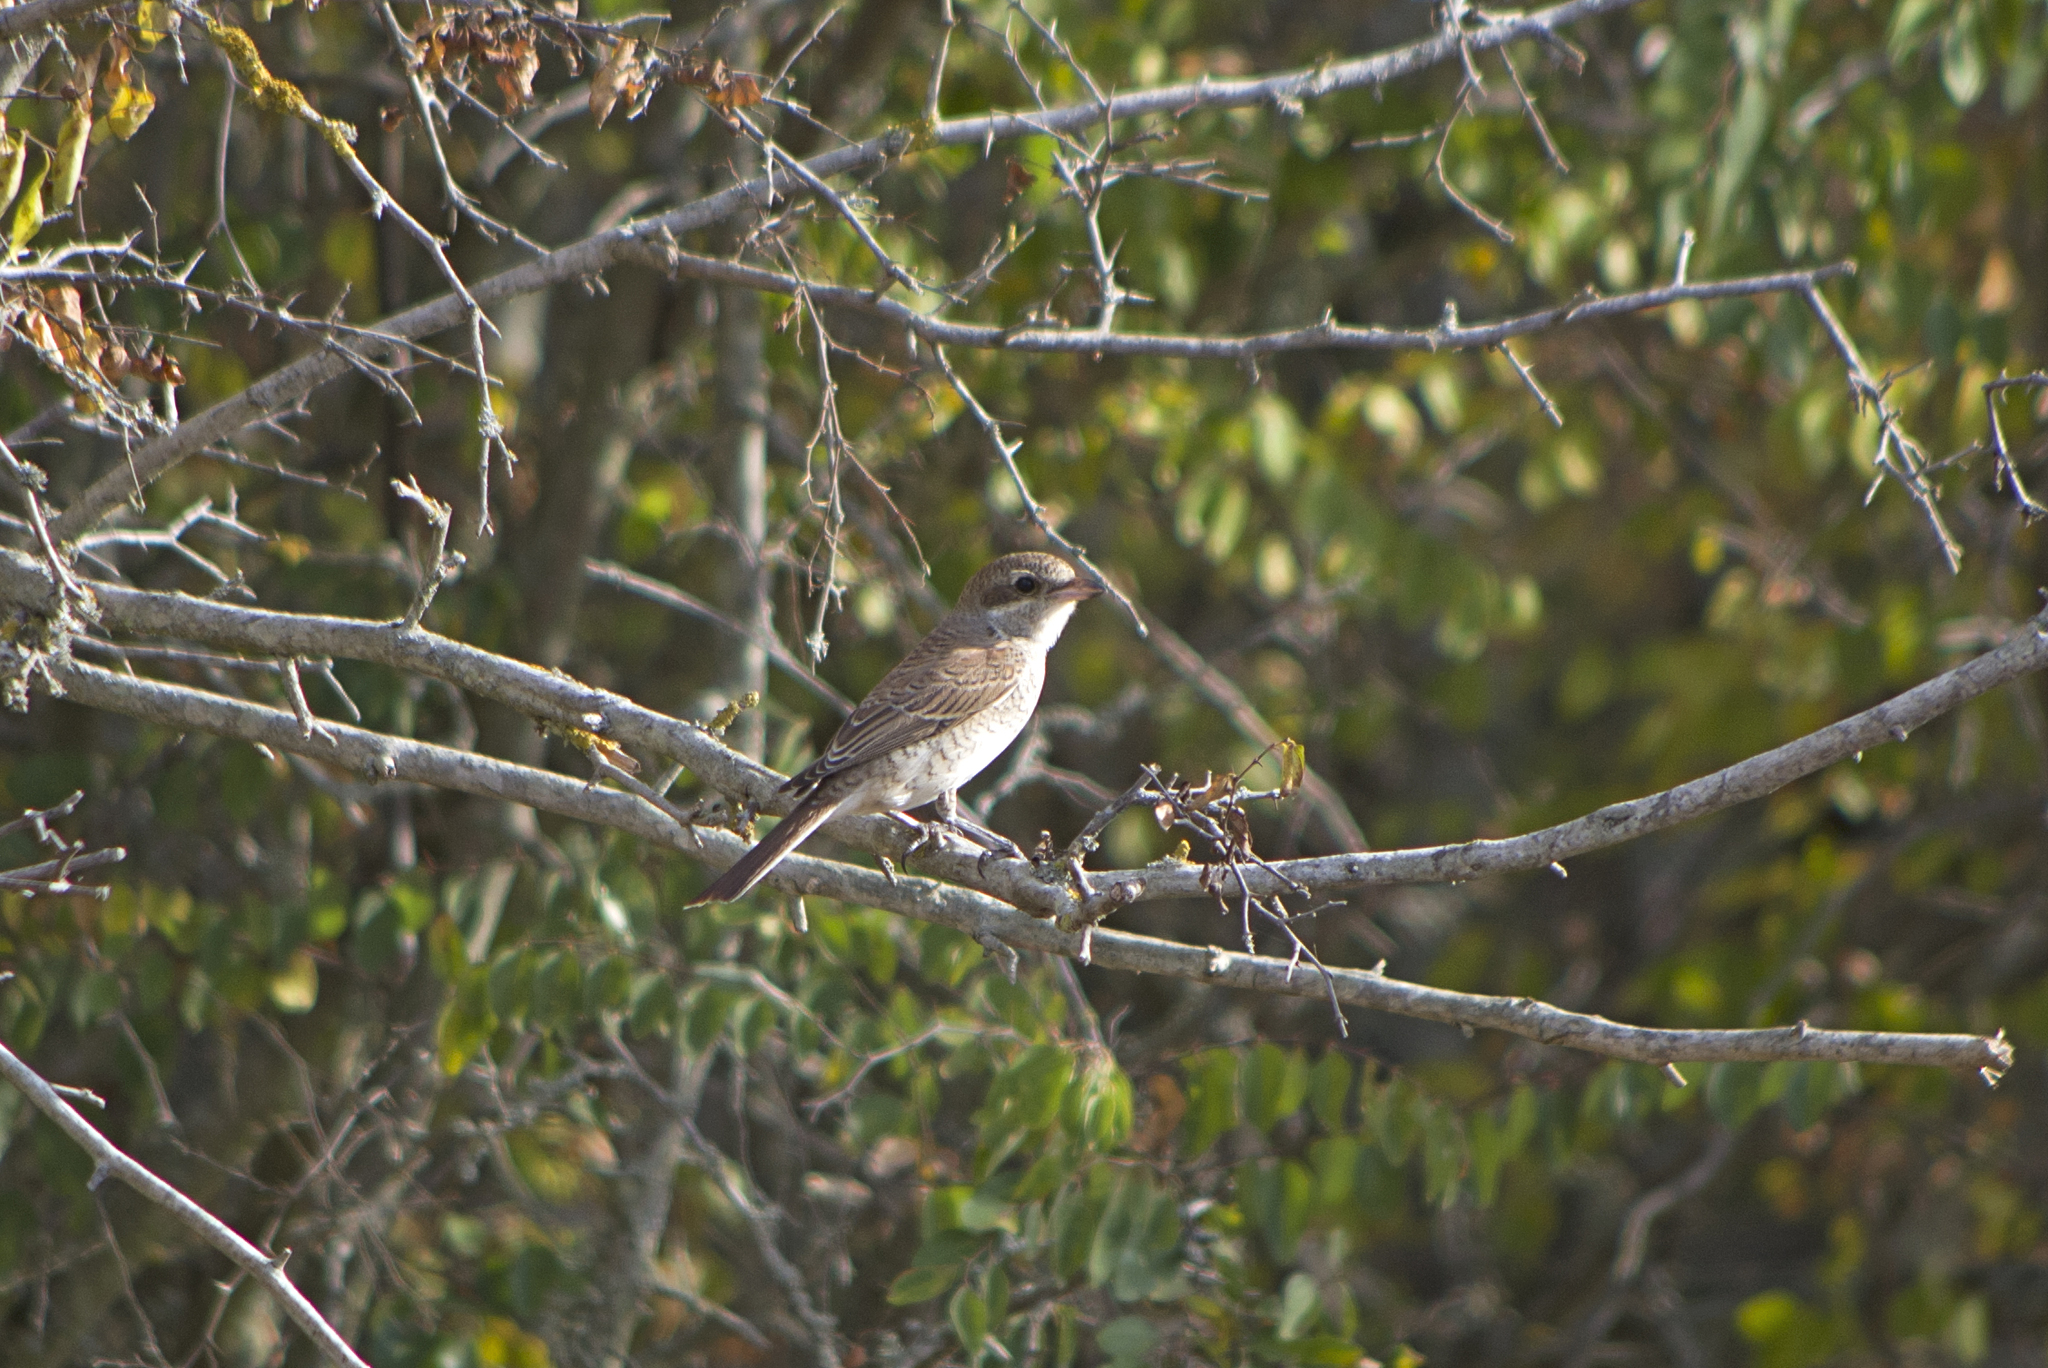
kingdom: Animalia
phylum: Chordata
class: Aves
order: Passeriformes
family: Laniidae
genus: Lanius
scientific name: Lanius collurio
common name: Red-backed shrike
